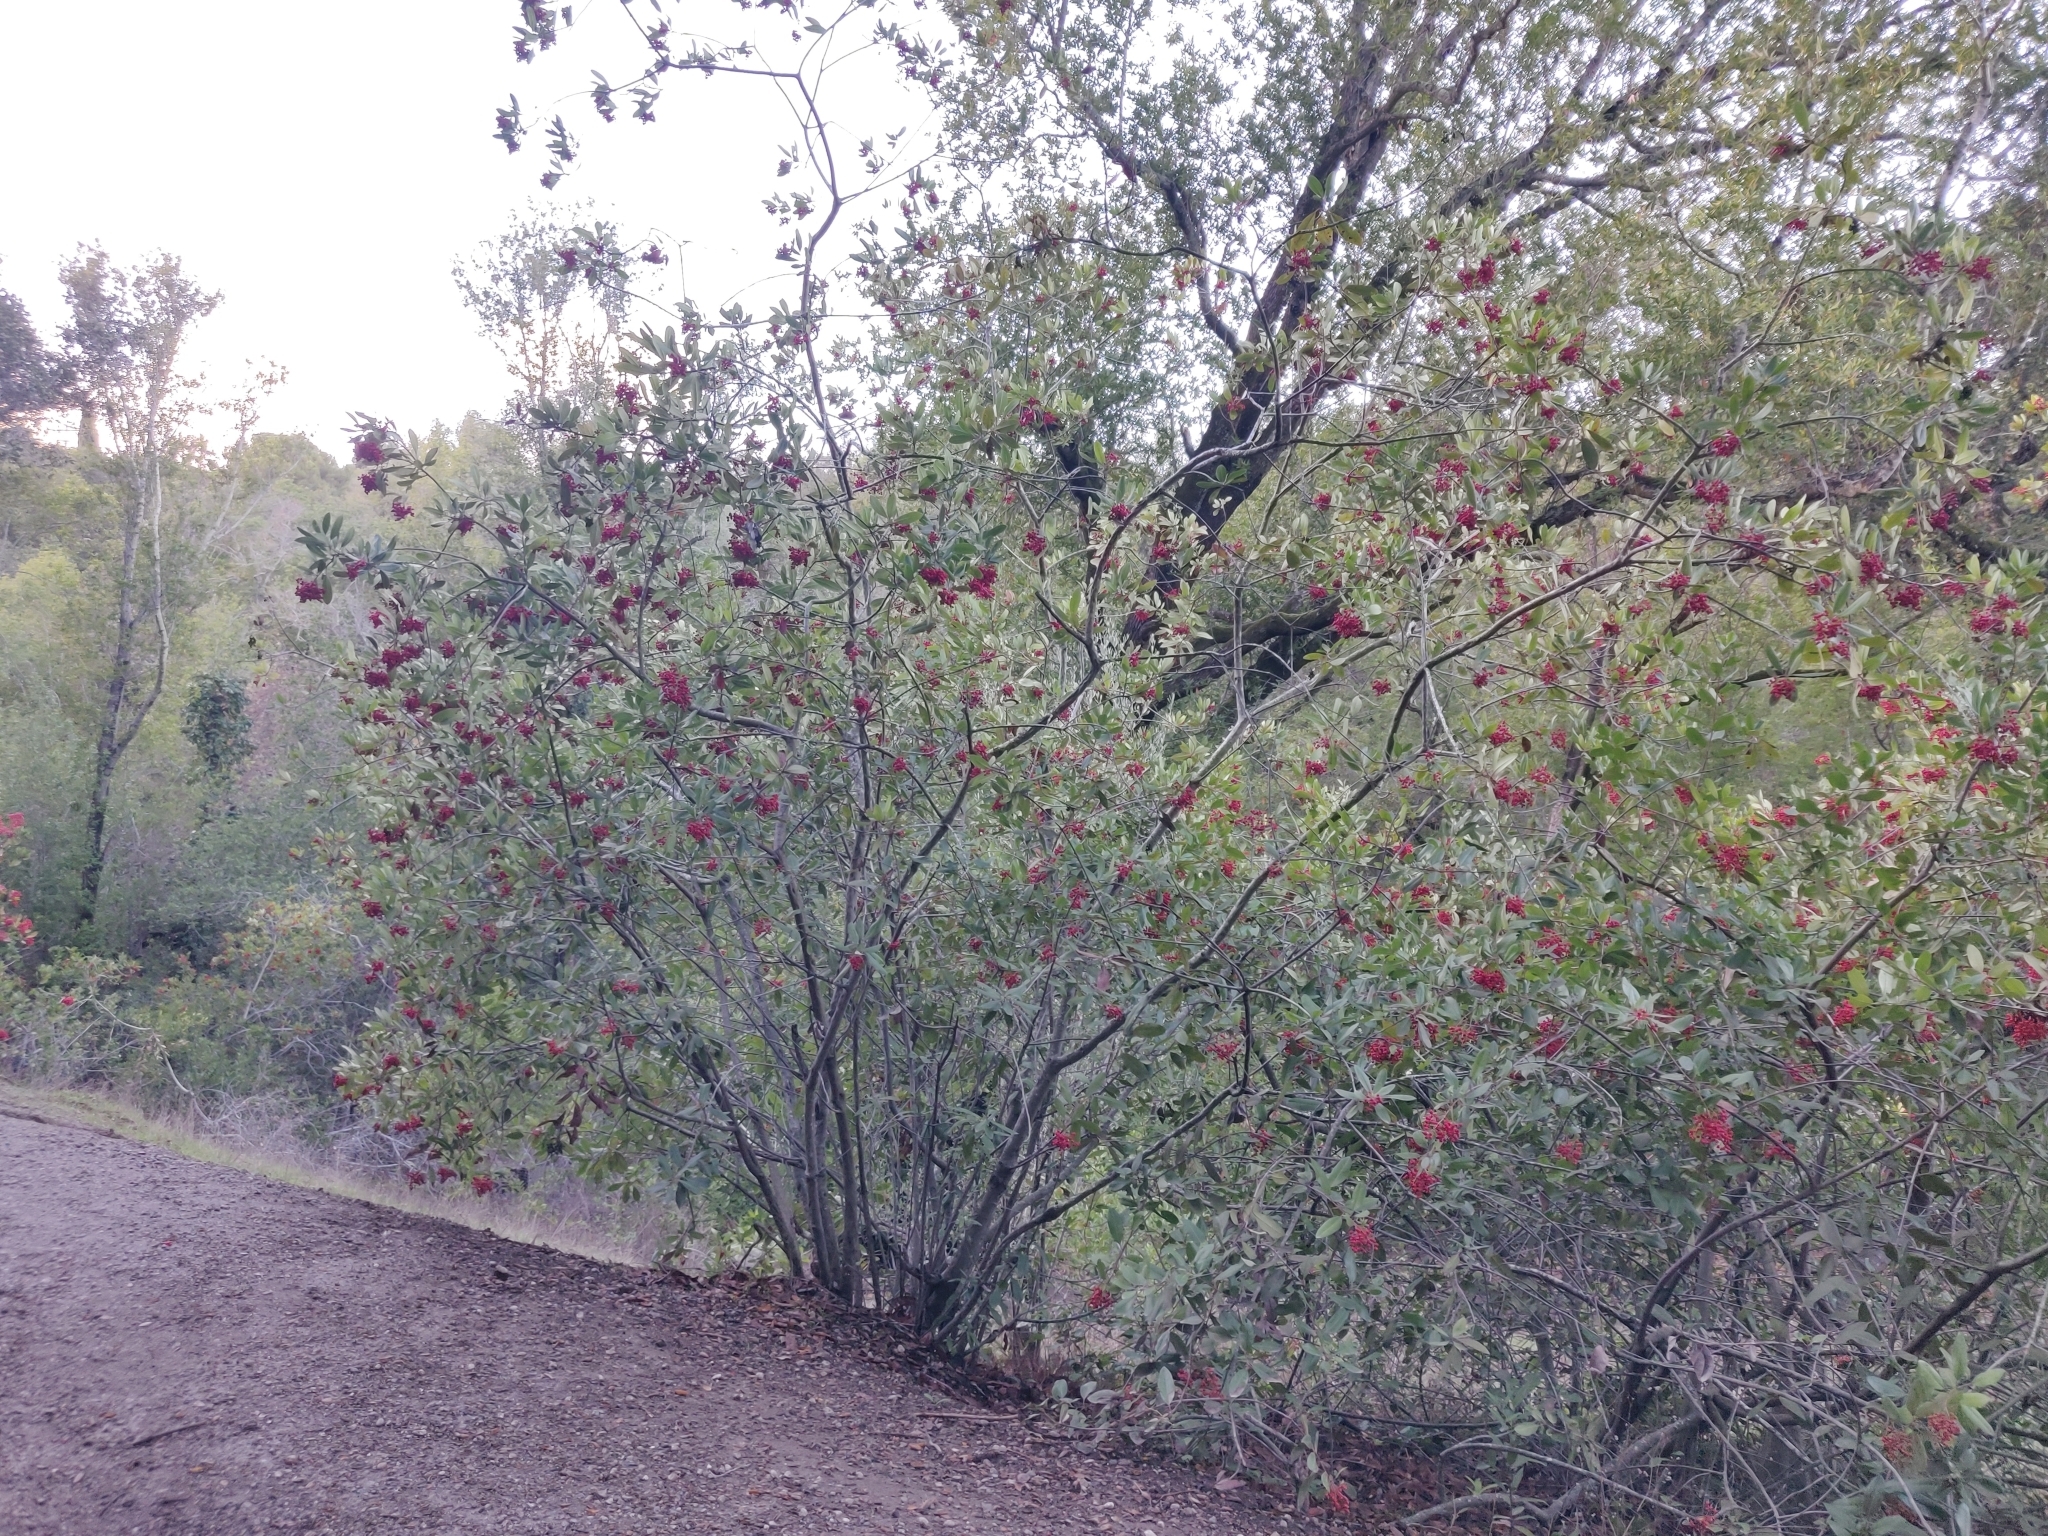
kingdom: Plantae
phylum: Tracheophyta
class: Magnoliopsida
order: Rosales
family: Rosaceae
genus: Heteromeles
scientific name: Heteromeles arbutifolia
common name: California-holly
